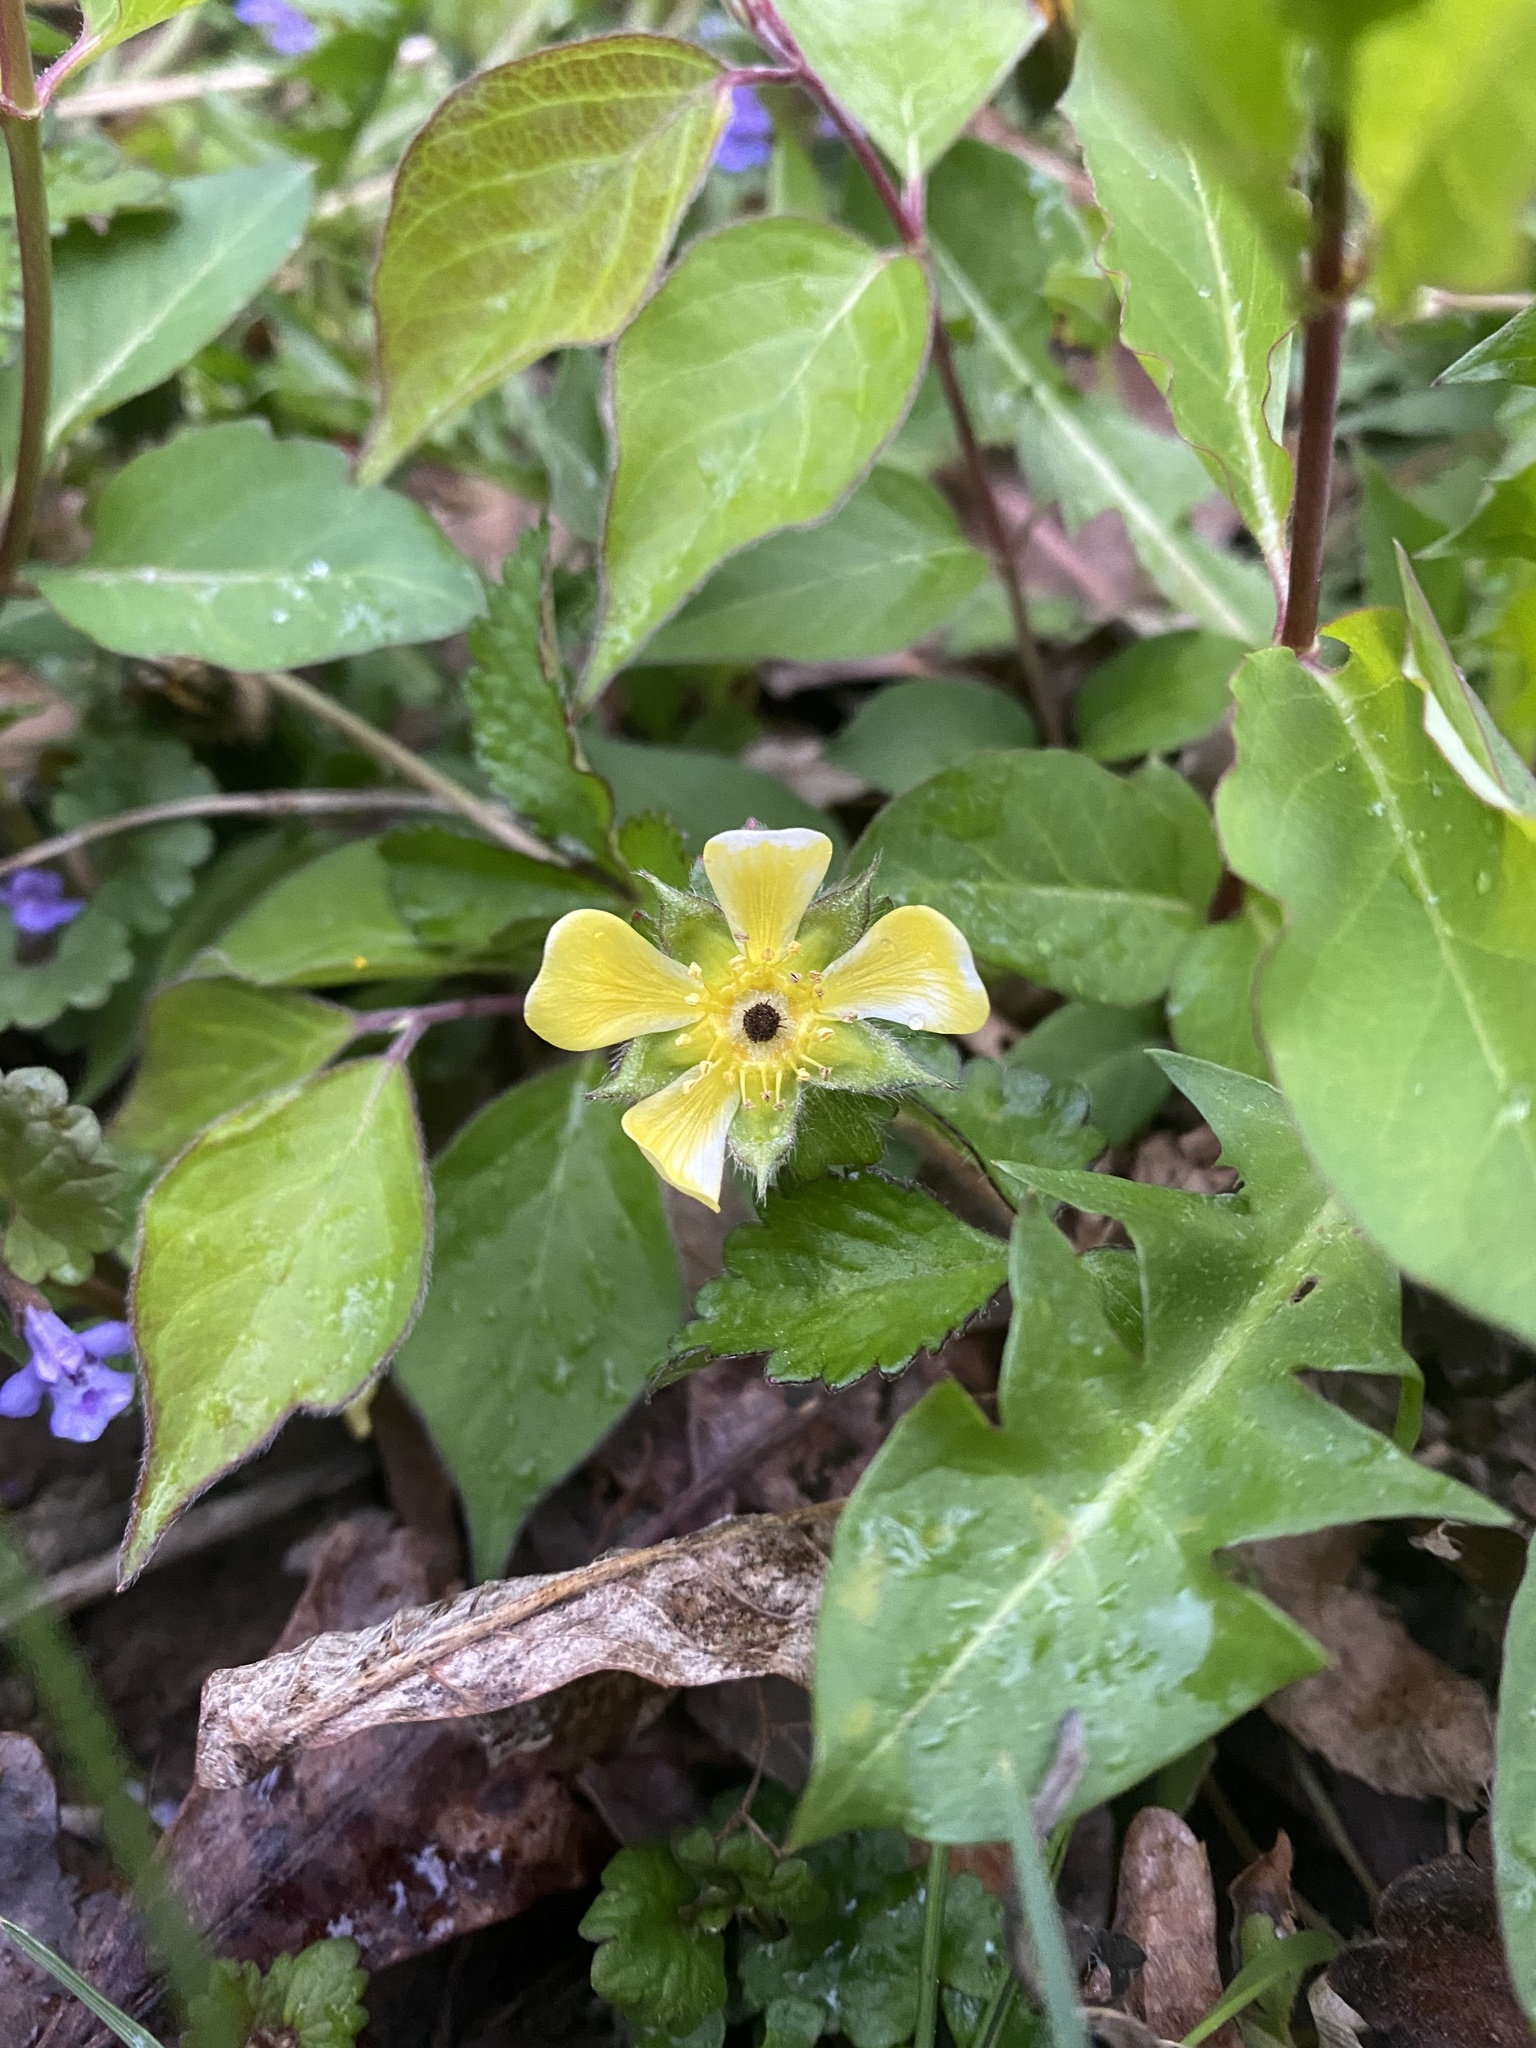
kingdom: Plantae
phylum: Tracheophyta
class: Magnoliopsida
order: Rosales
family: Rosaceae
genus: Potentilla
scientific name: Potentilla indica
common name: Yellow-flowered strawberry
